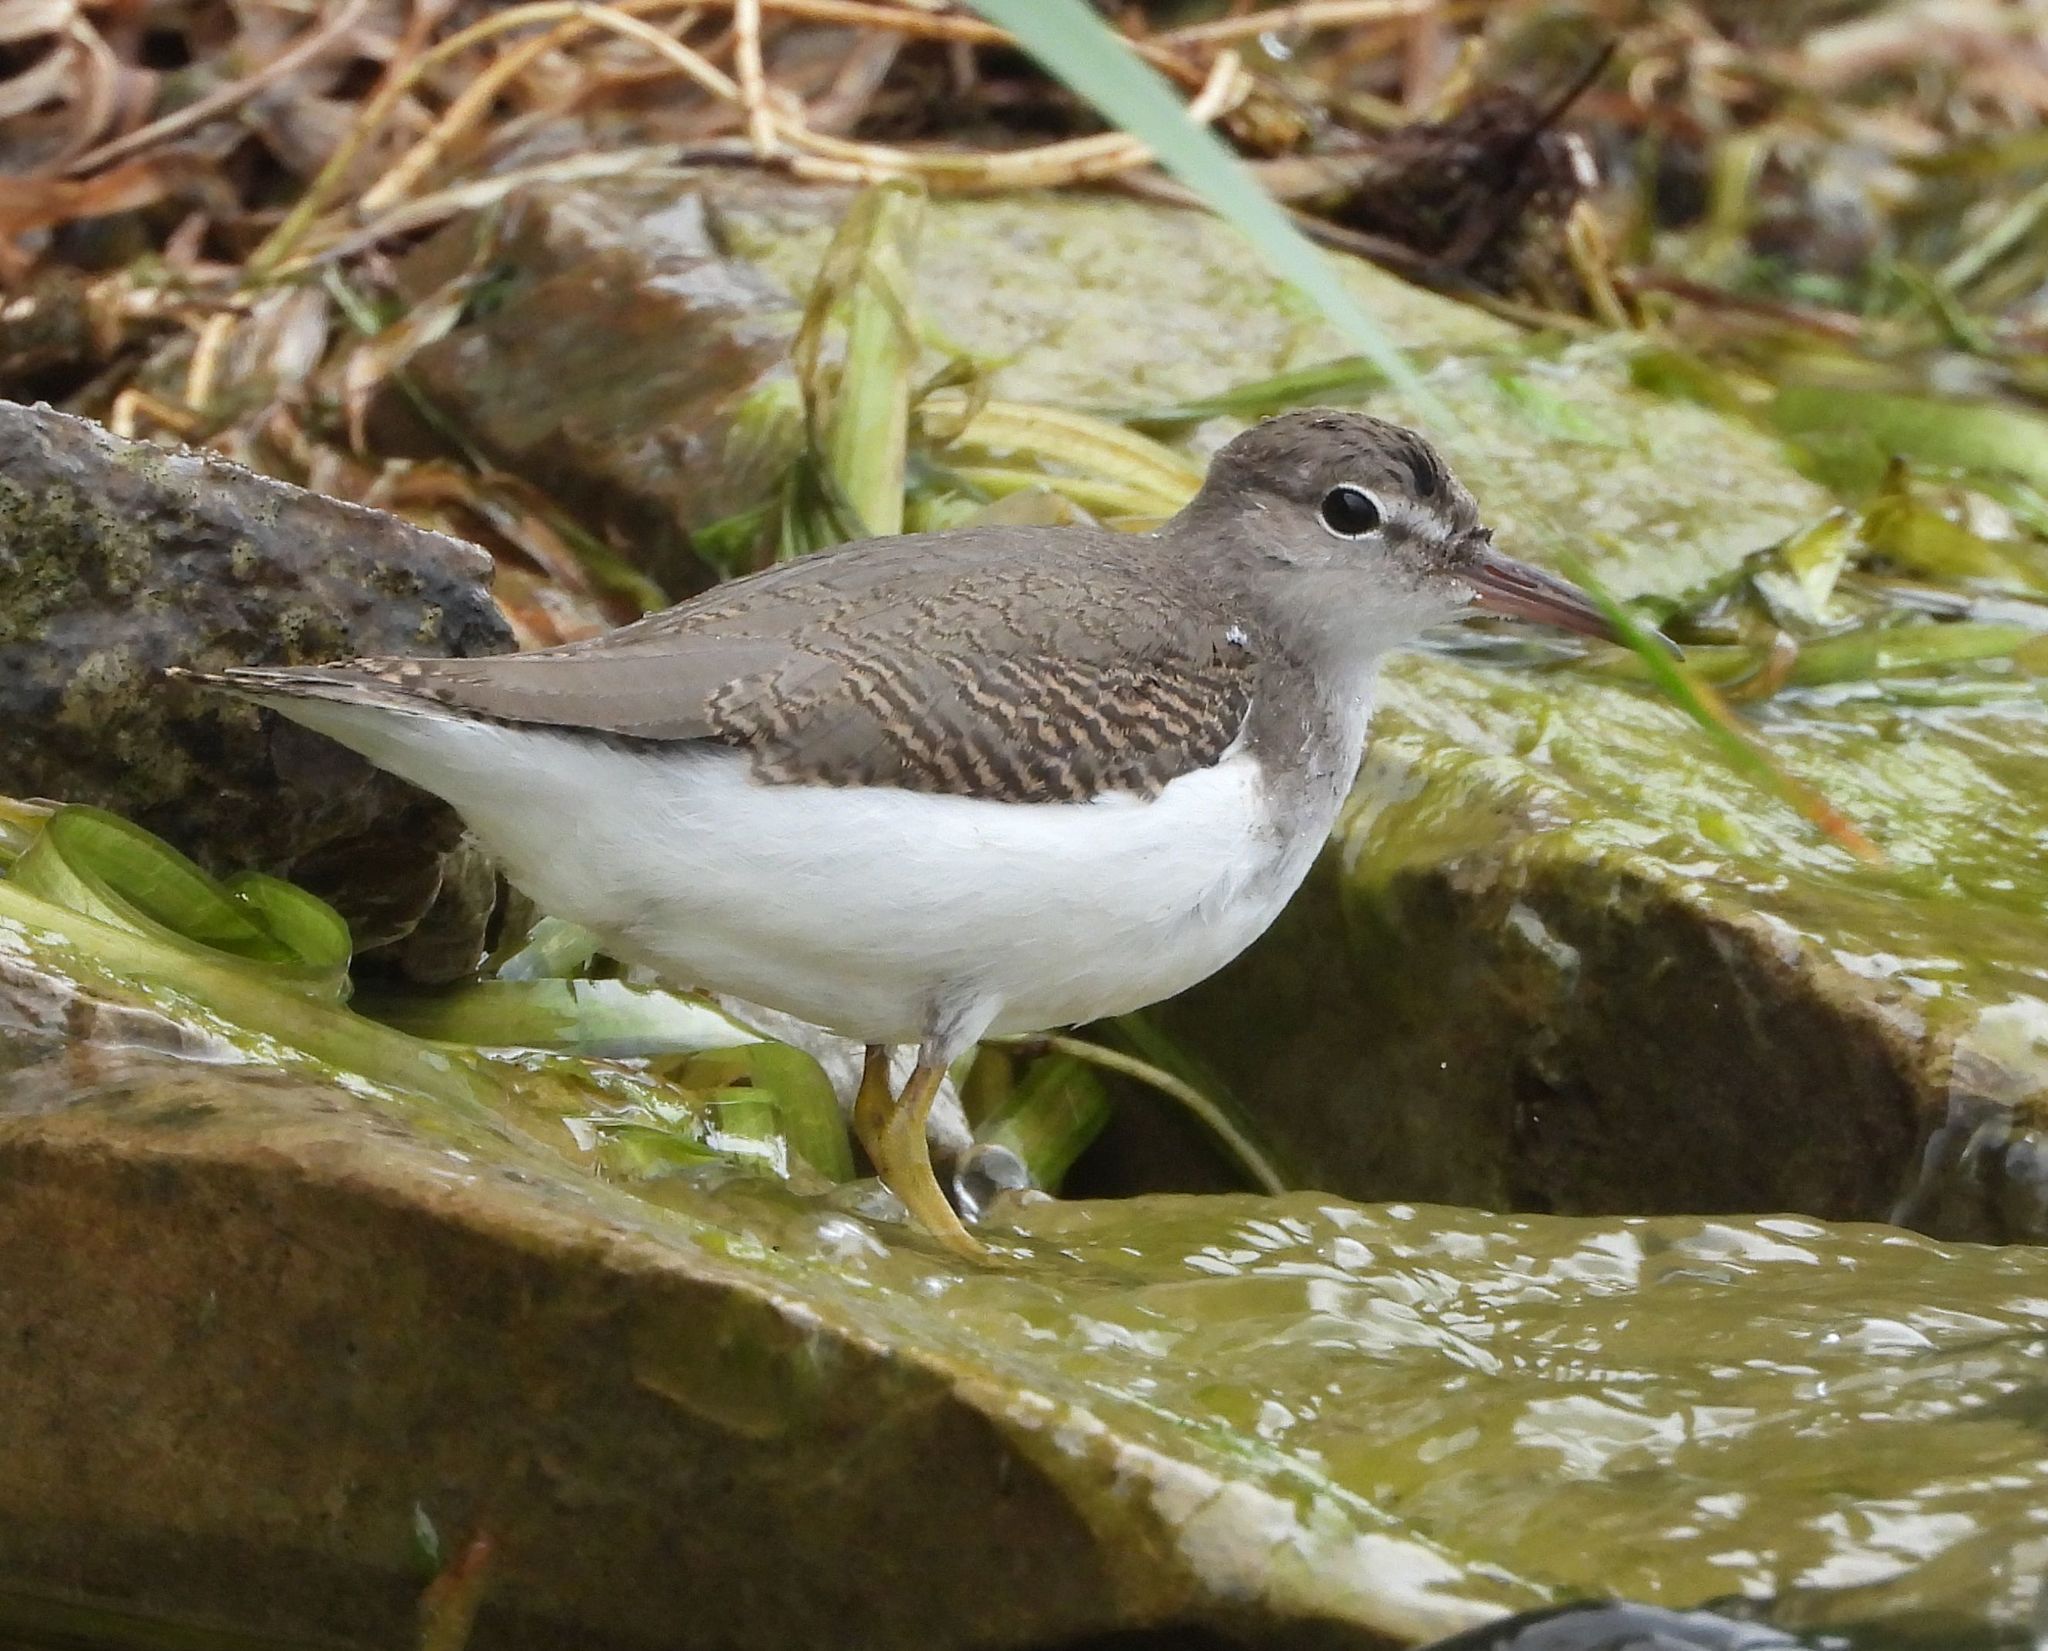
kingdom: Animalia
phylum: Chordata
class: Aves
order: Charadriiformes
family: Scolopacidae
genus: Actitis
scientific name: Actitis macularius
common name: Spotted sandpiper
